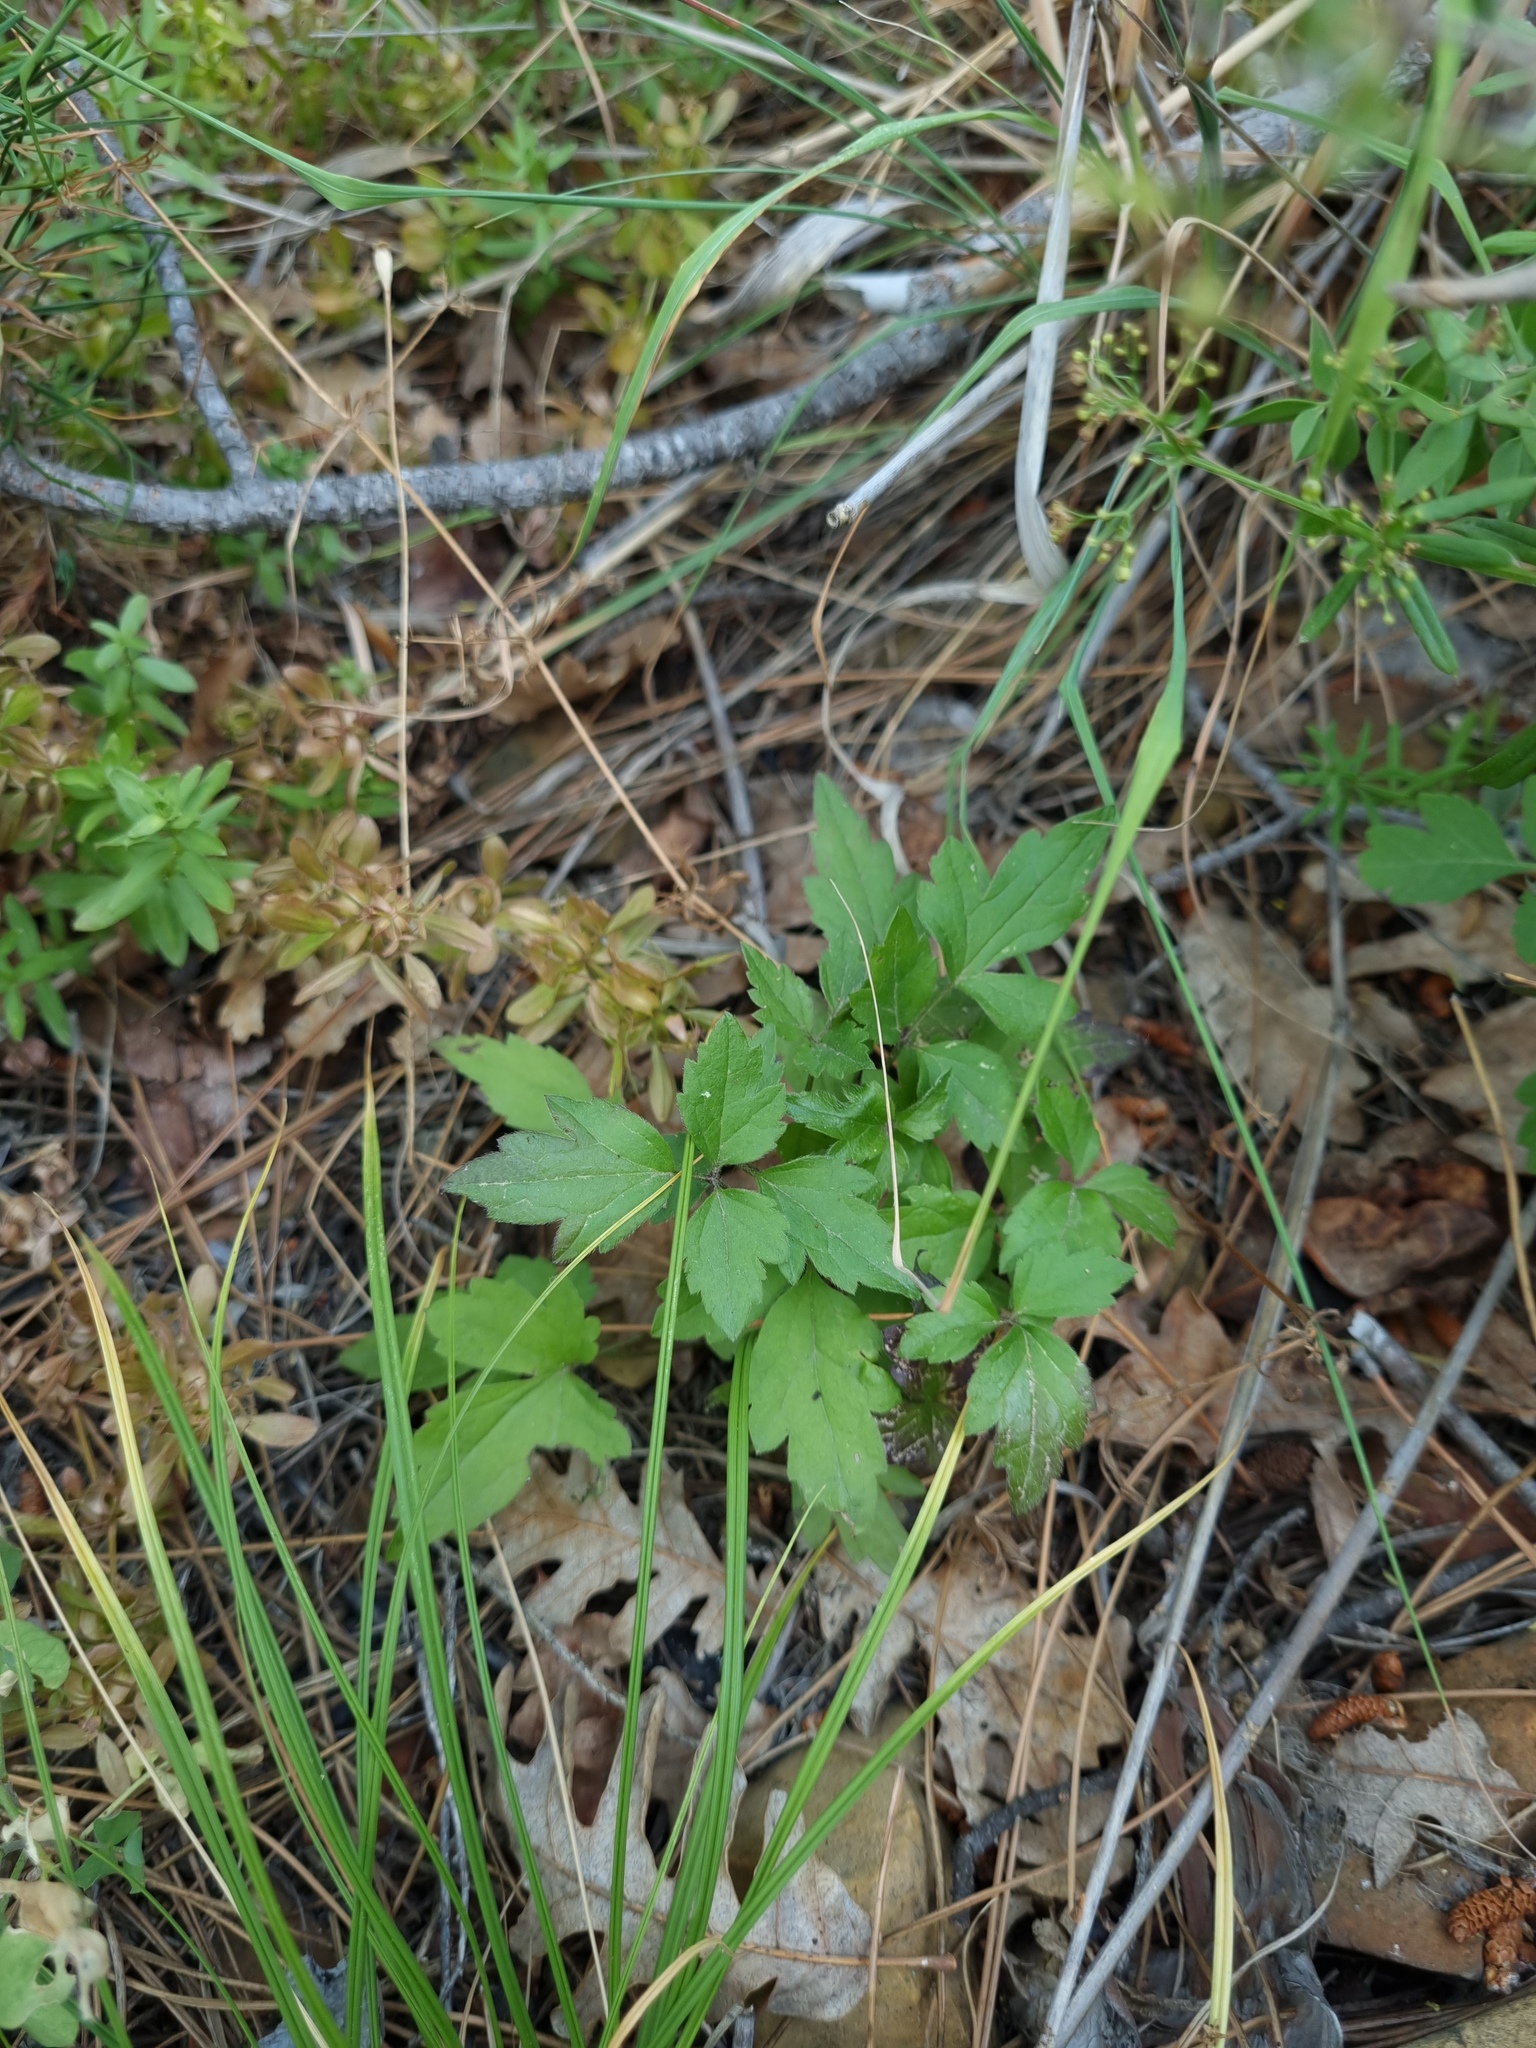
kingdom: Plantae
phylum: Tracheophyta
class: Magnoliopsida
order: Ranunculales
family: Ranunculaceae
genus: Clematis
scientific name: Clematis vitalba
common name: Evergreen clematis
